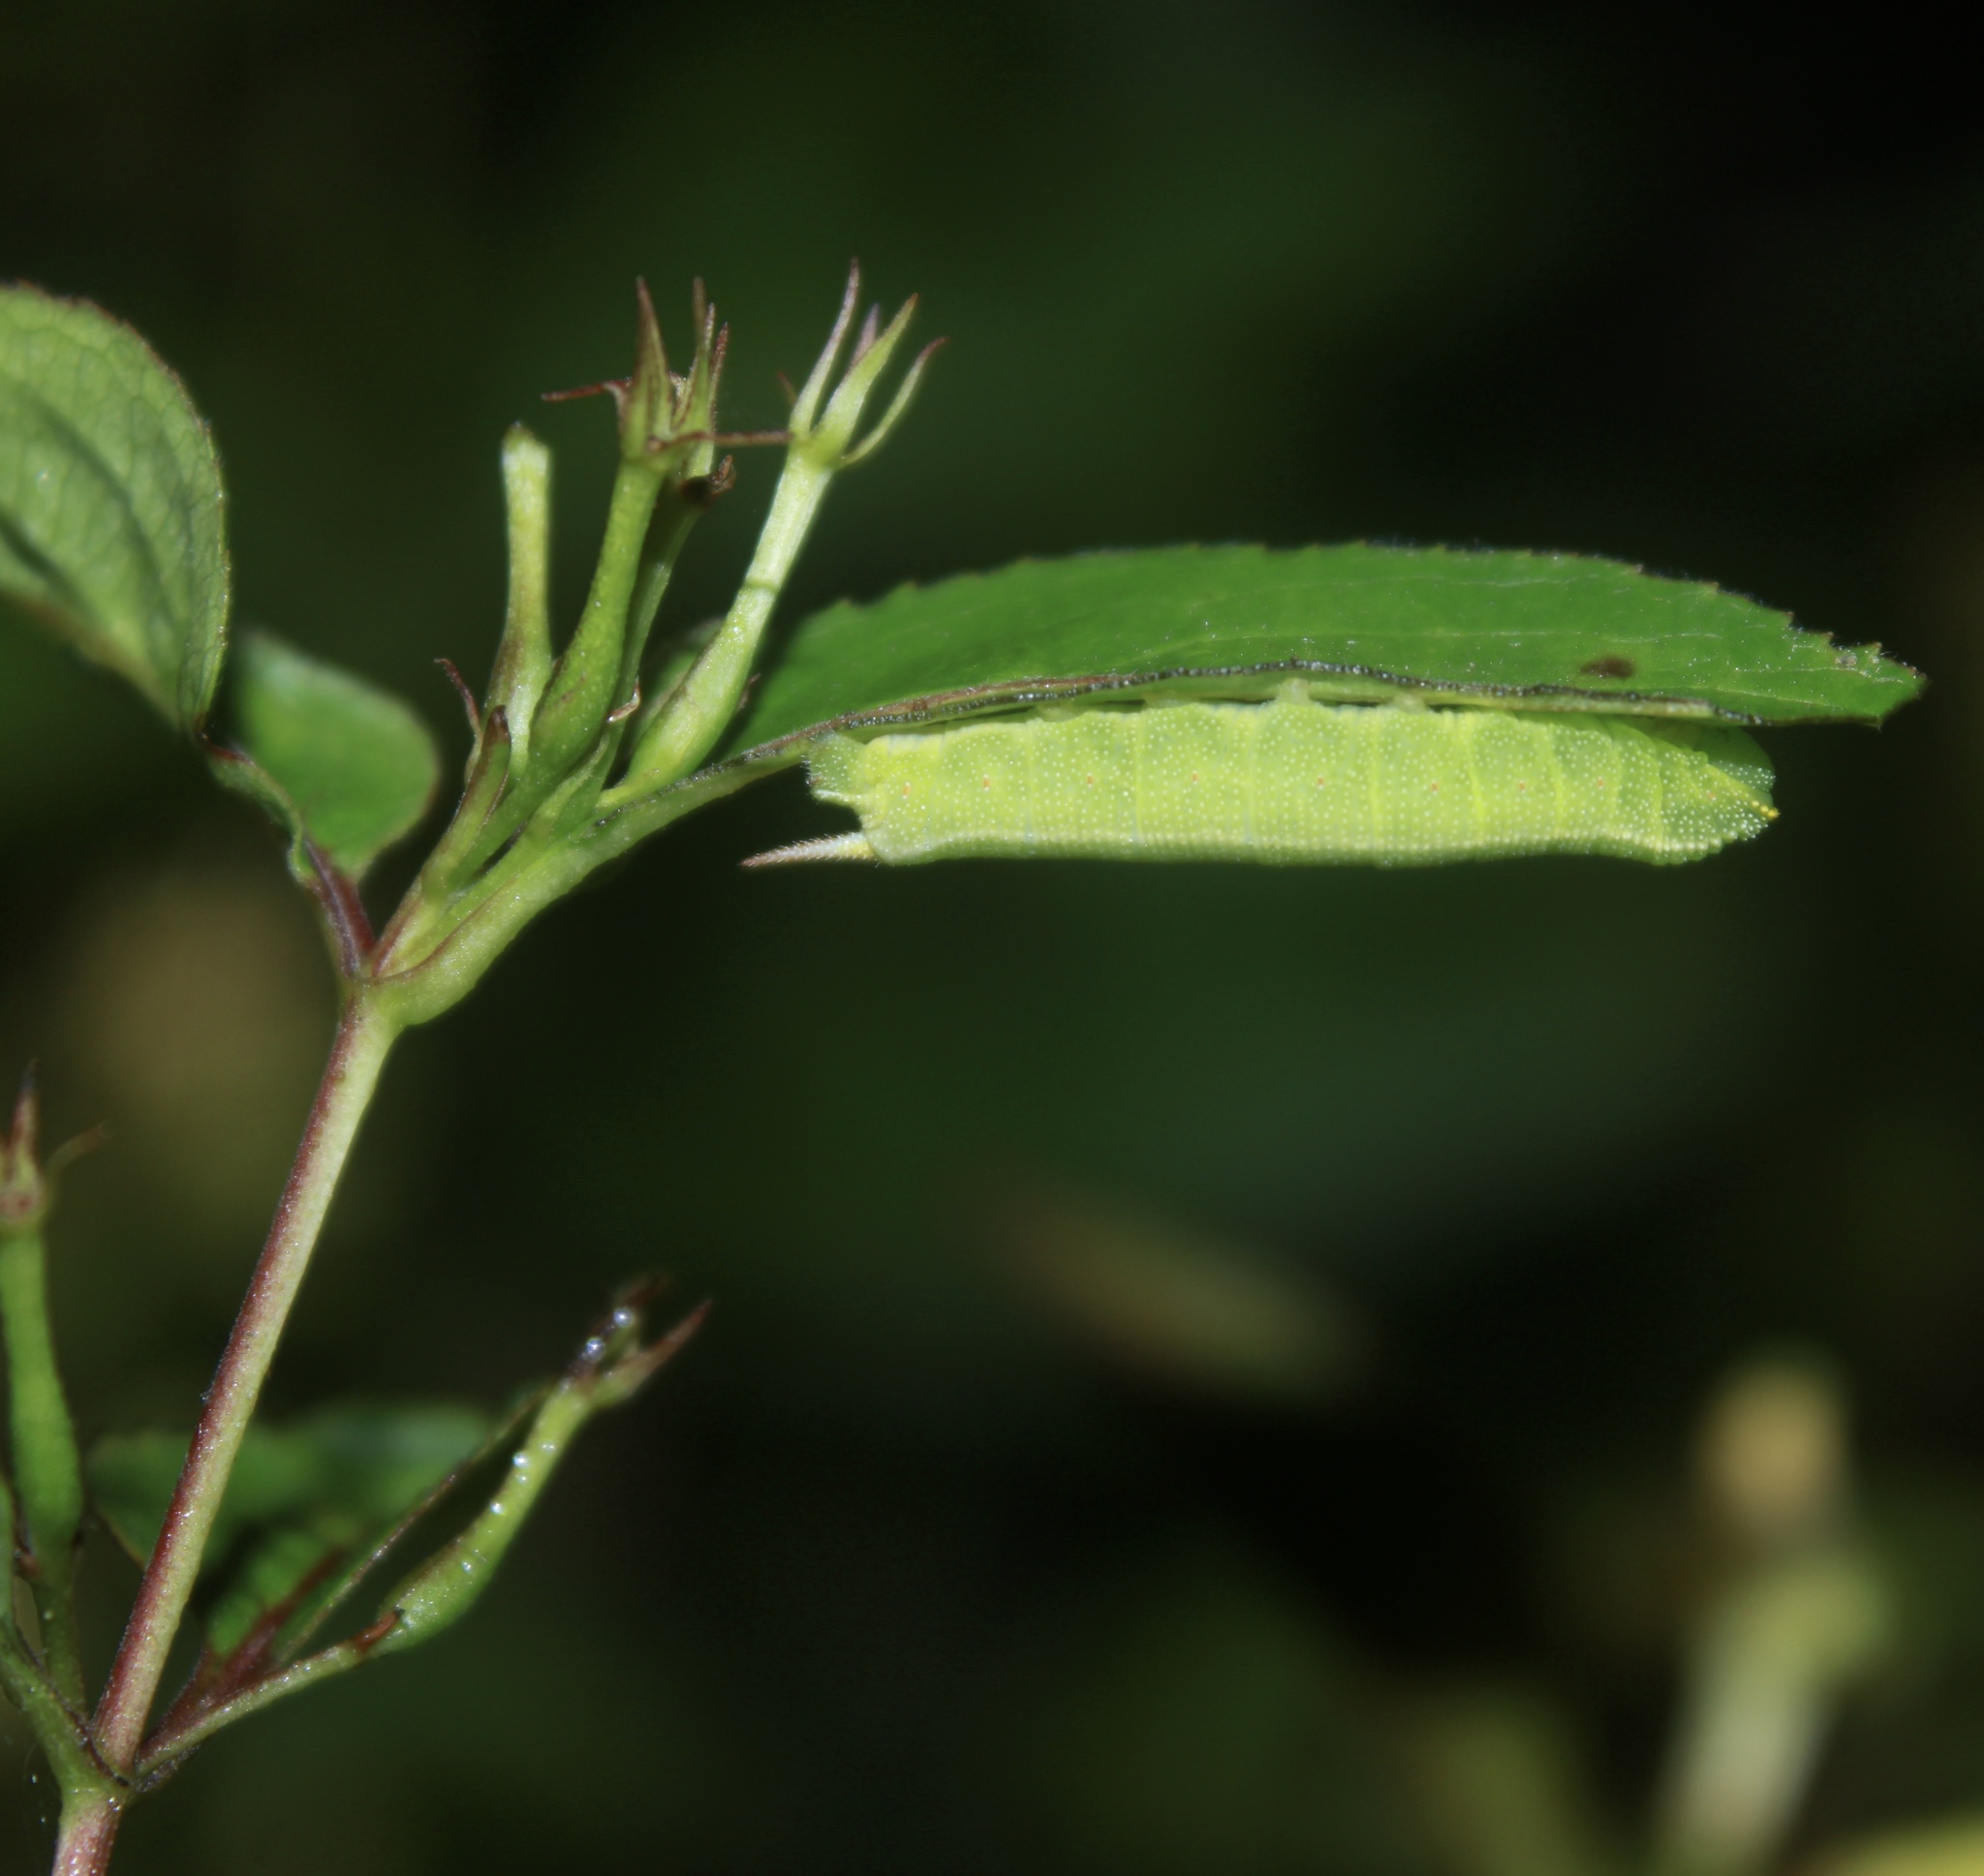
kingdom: Animalia
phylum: Arthropoda
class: Insecta
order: Lepidoptera
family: Sphingidae
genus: Hemaris
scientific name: Hemaris diffinis
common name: Bumblebee moth
